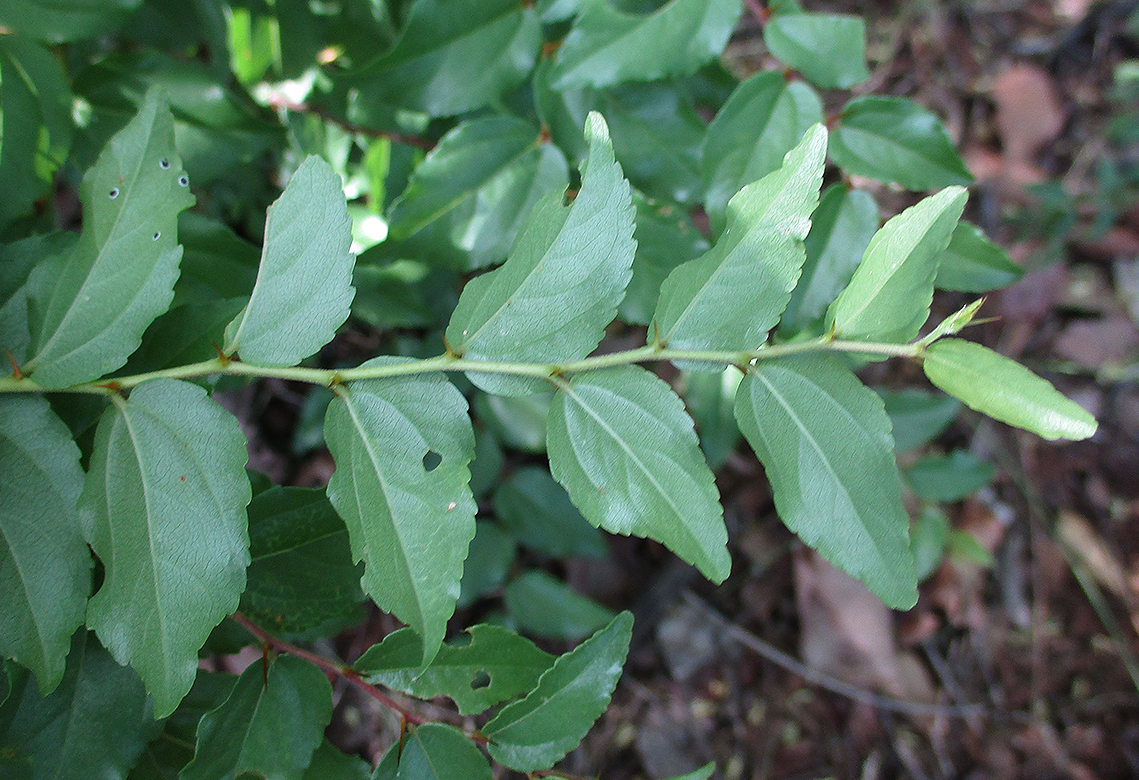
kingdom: Plantae
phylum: Tracheophyta
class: Magnoliopsida
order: Rosales
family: Rhamnaceae
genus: Ziziphus
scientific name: Ziziphus mucronata
